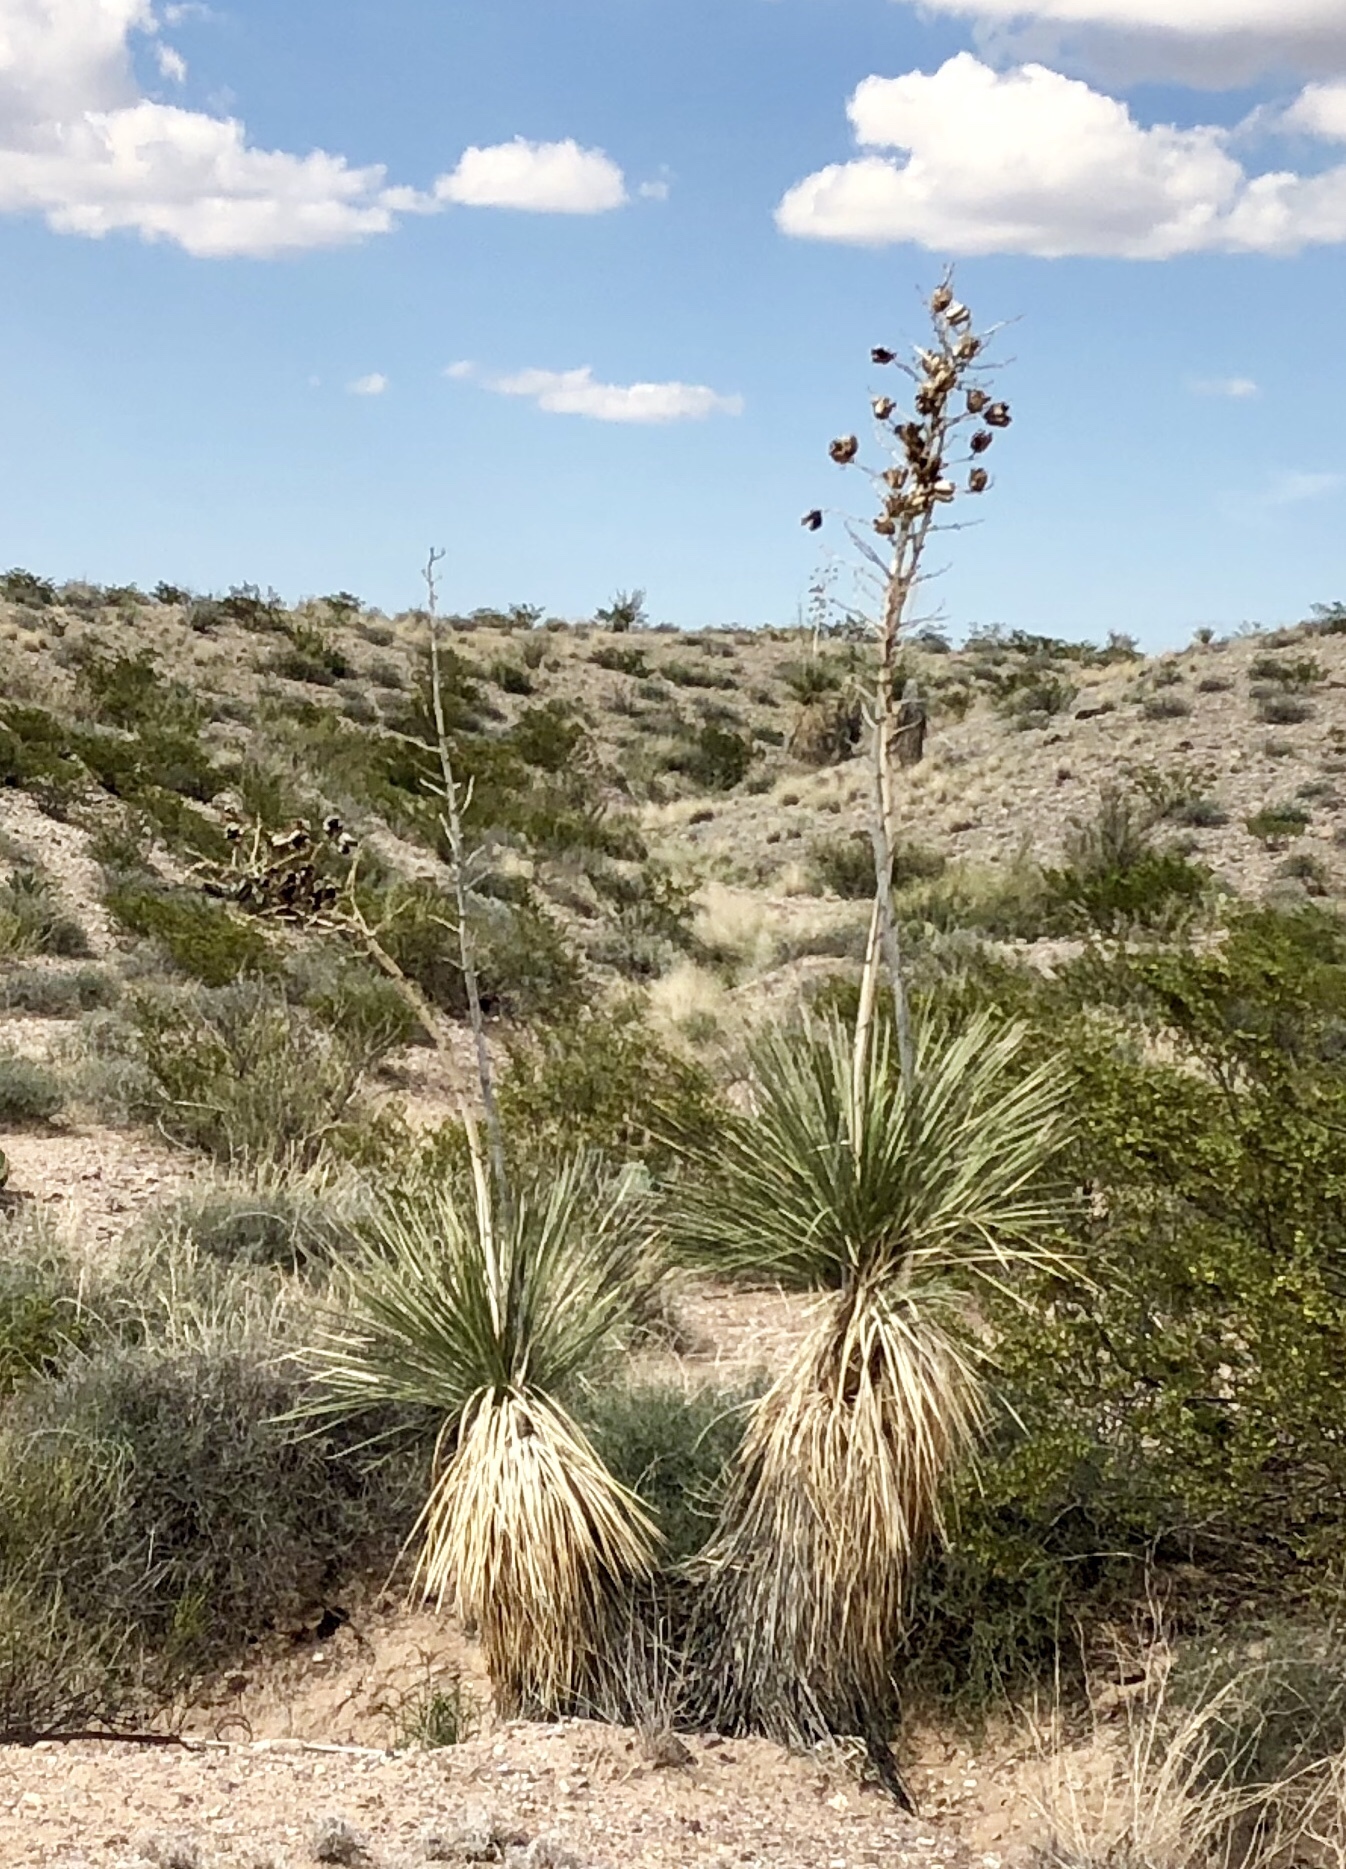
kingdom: Plantae
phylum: Tracheophyta
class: Liliopsida
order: Asparagales
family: Asparagaceae
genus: Yucca
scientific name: Yucca elata
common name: Palmella
